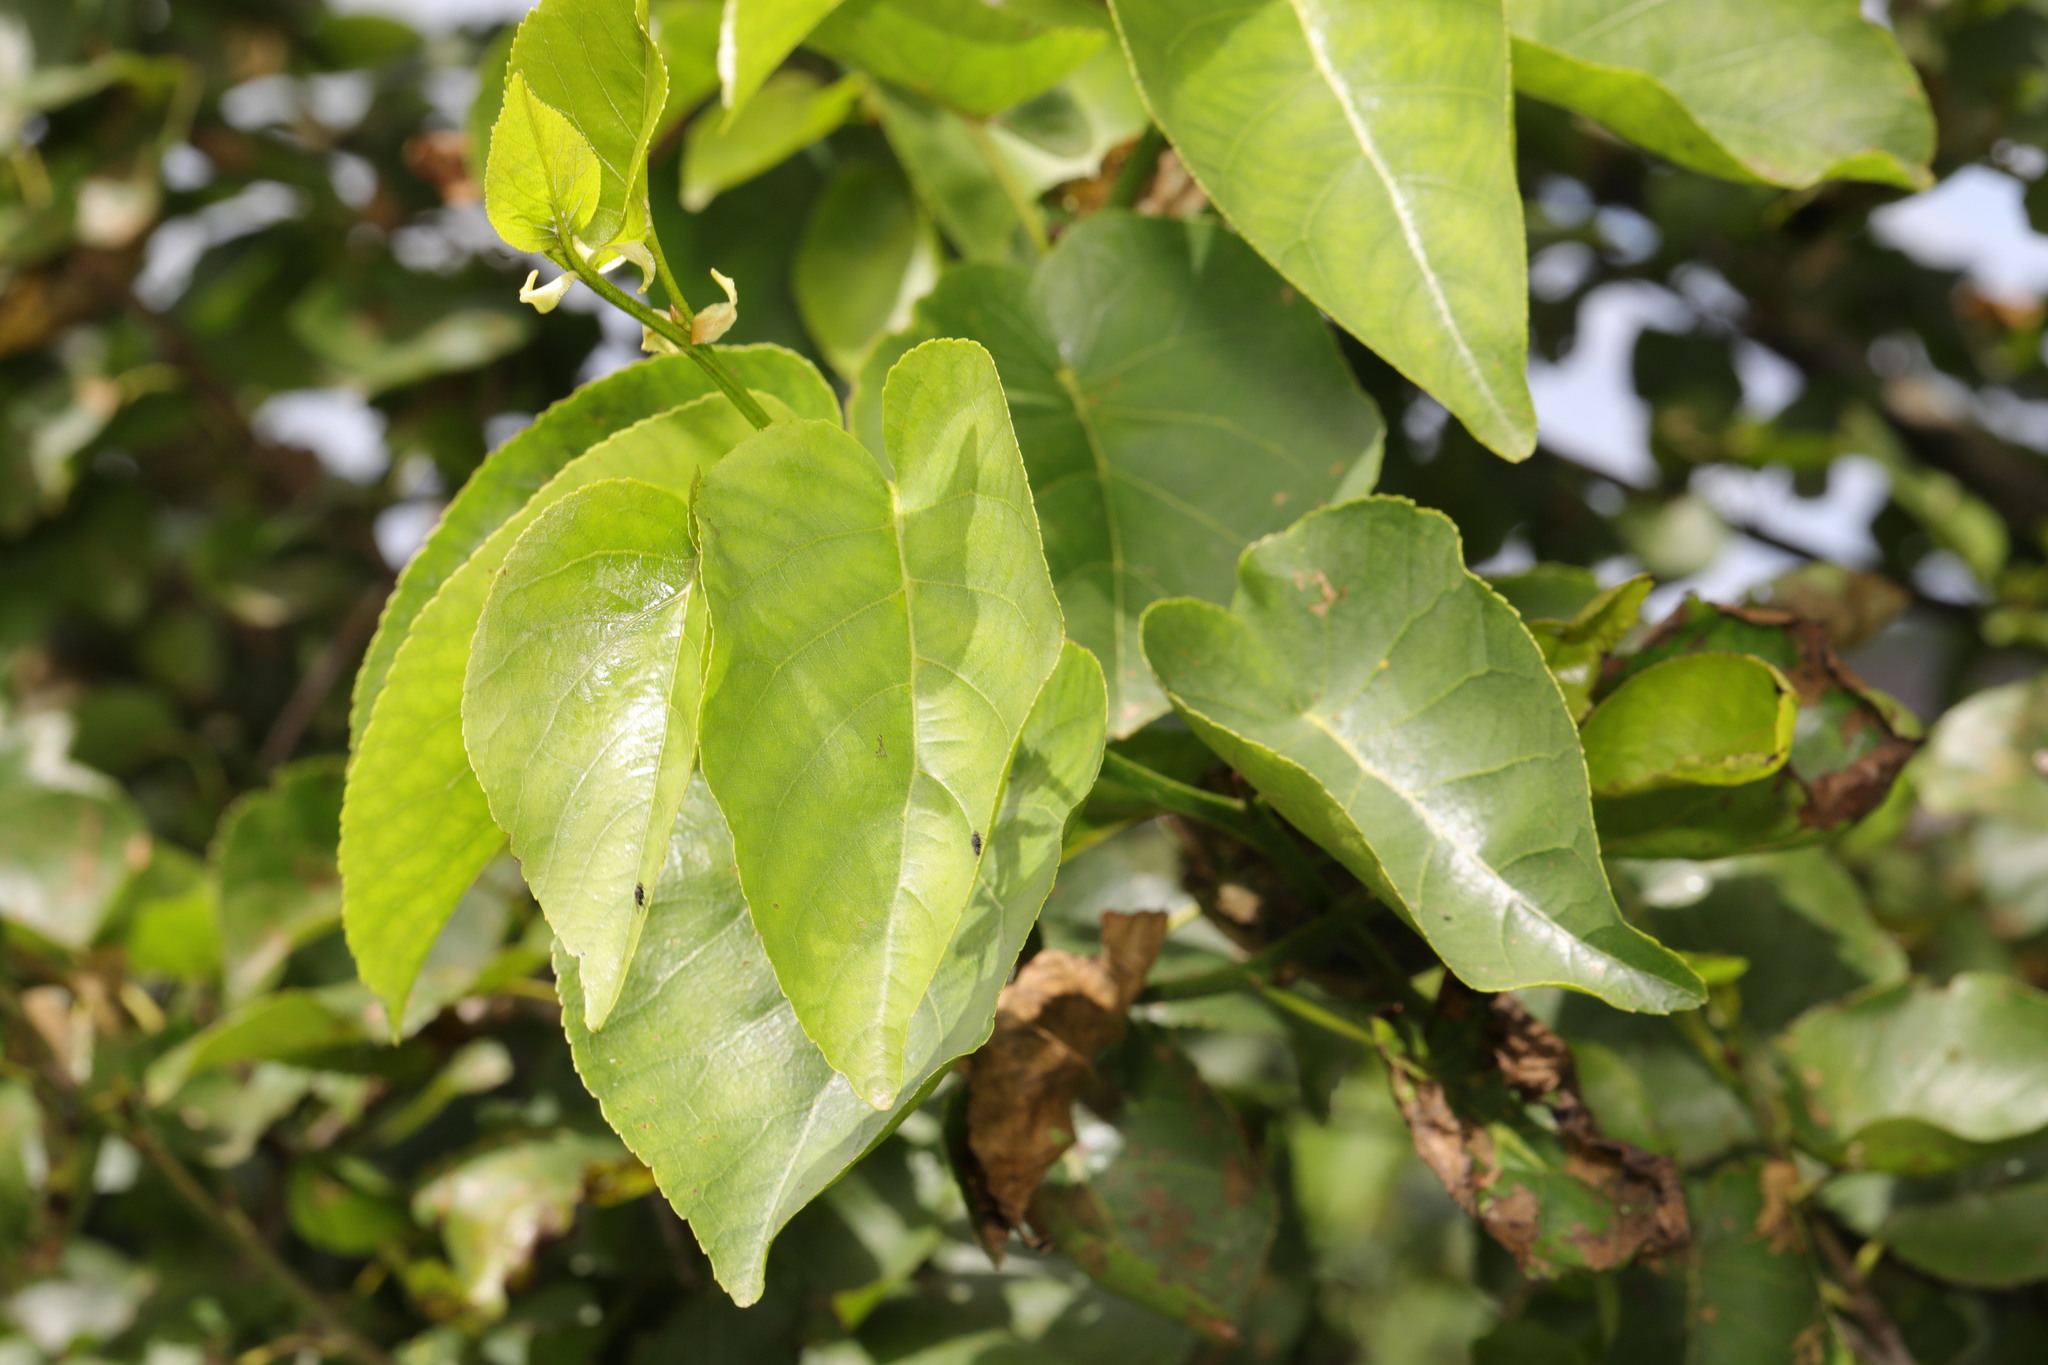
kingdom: Plantae
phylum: Tracheophyta
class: Magnoliopsida
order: Rosales
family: Rosaceae
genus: Malus
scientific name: Malus domestica
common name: Apple
